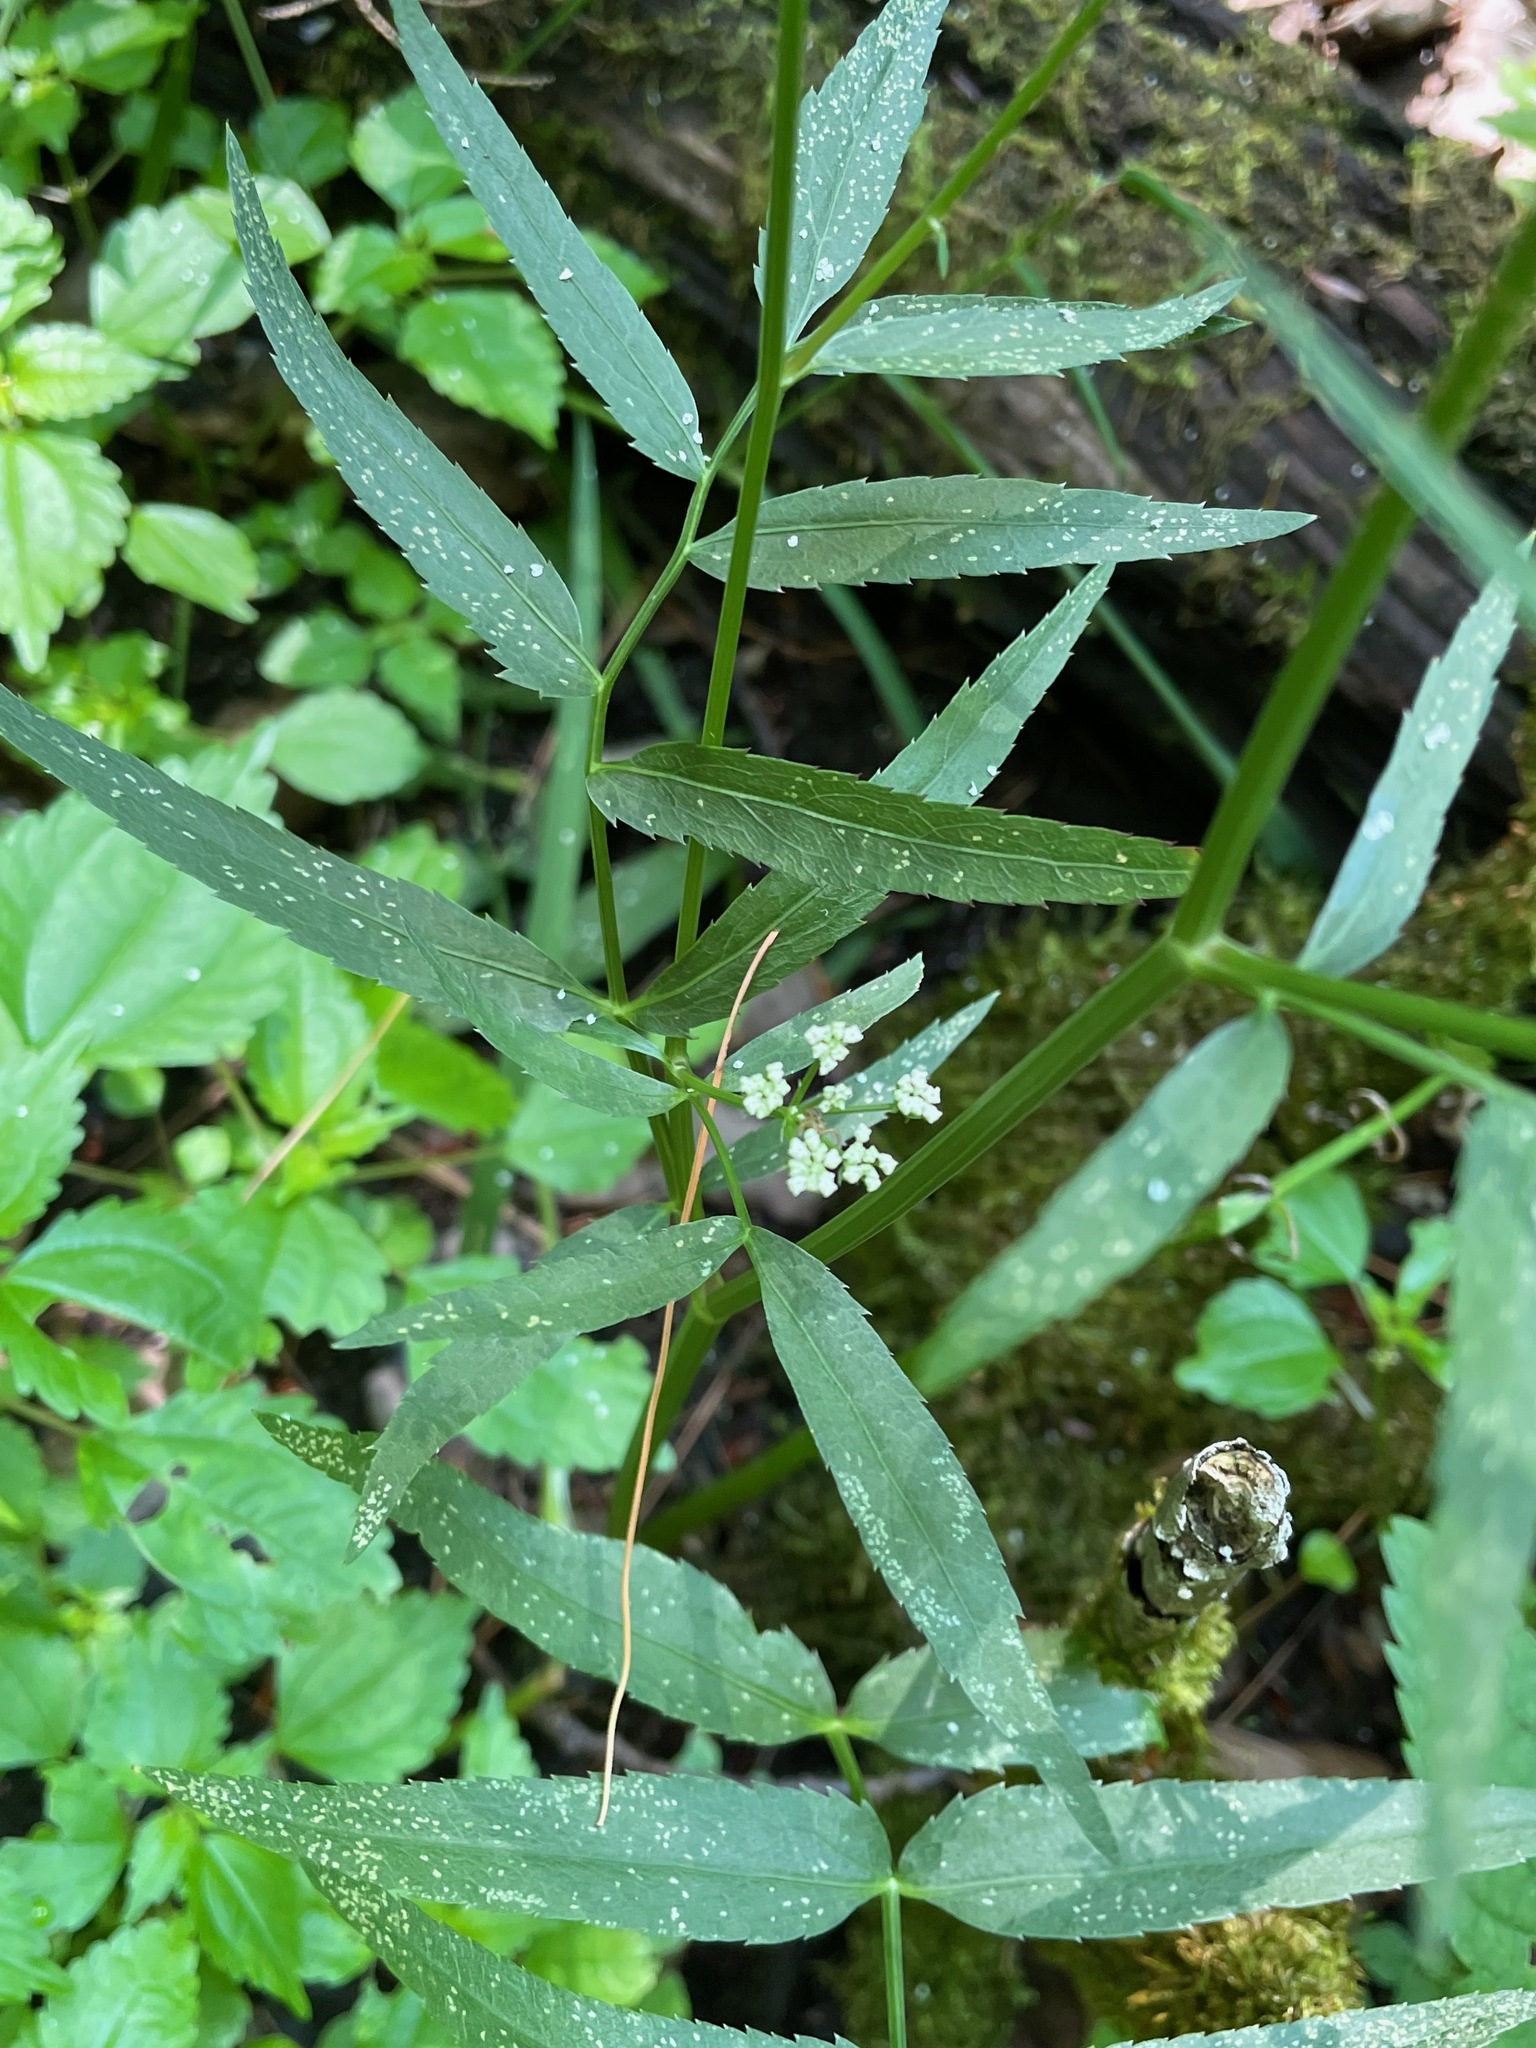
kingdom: Plantae
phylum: Tracheophyta
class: Magnoliopsida
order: Apiales
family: Apiaceae
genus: Sium
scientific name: Sium suave
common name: Hemlock water-parsnip
